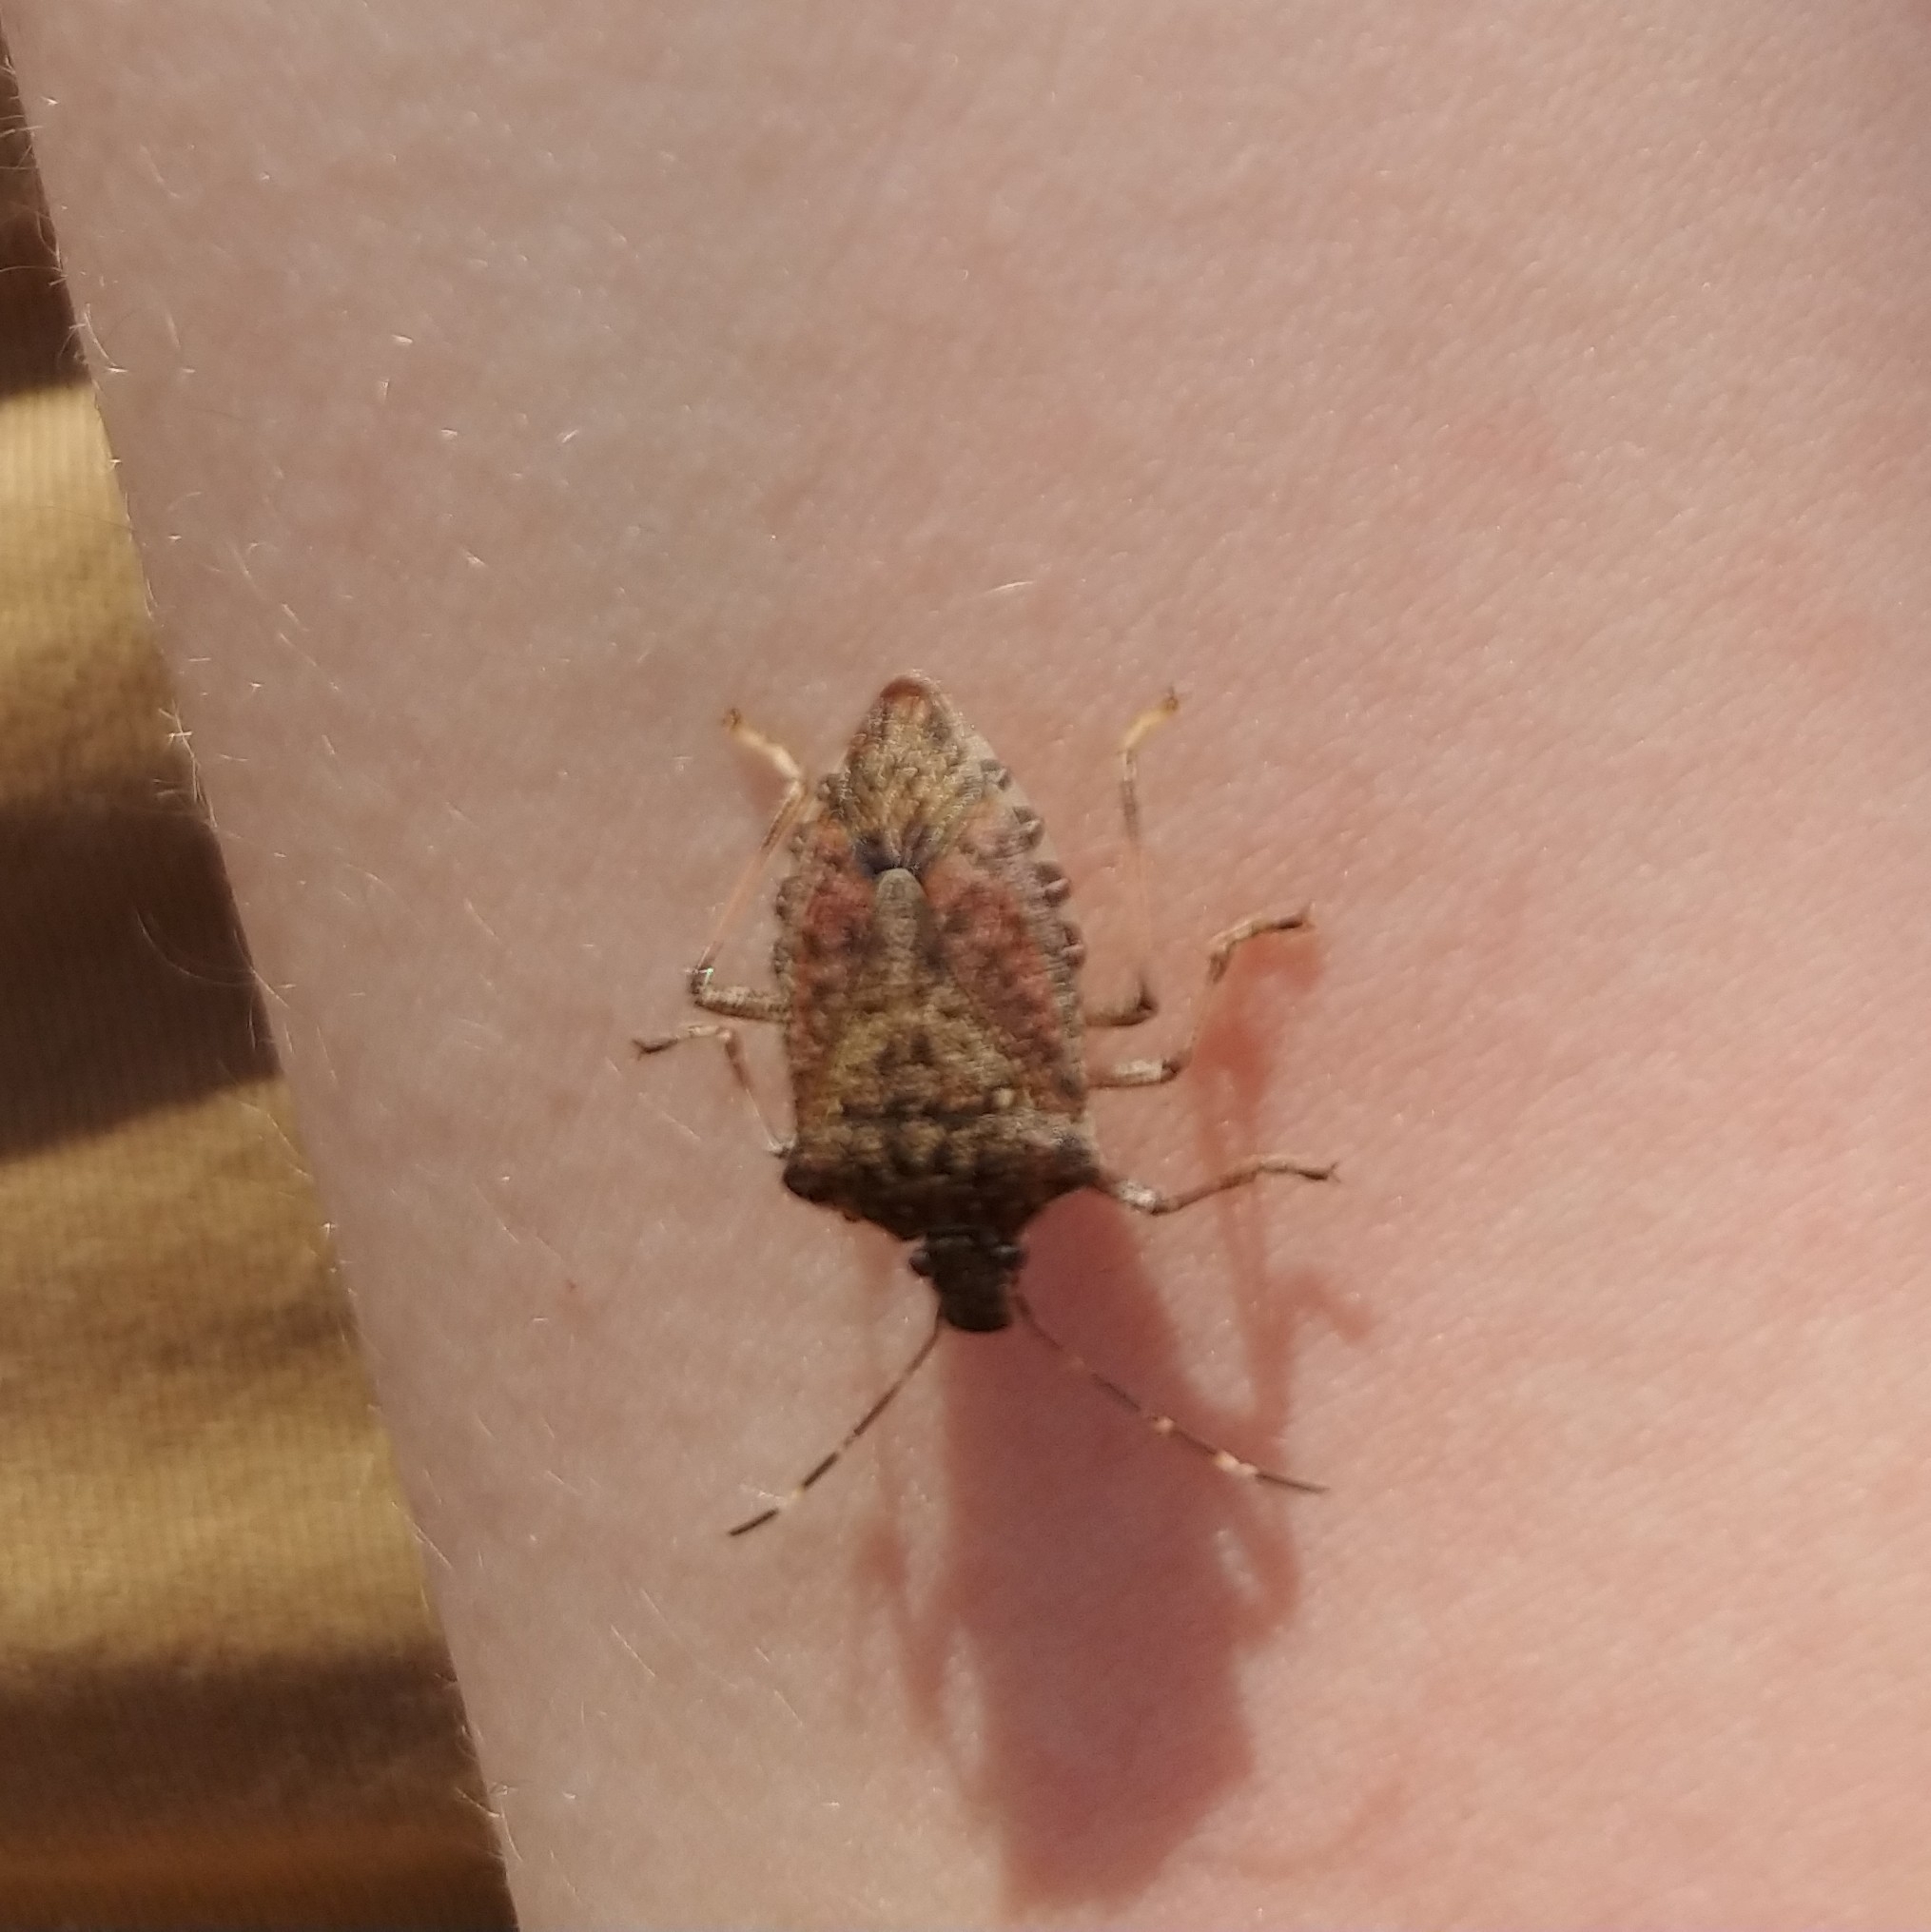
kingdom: Animalia
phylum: Arthropoda
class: Insecta
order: Hemiptera
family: Pentatomidae
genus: Halyomorpha
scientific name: Halyomorpha halys
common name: Brown marmorated stink bug
